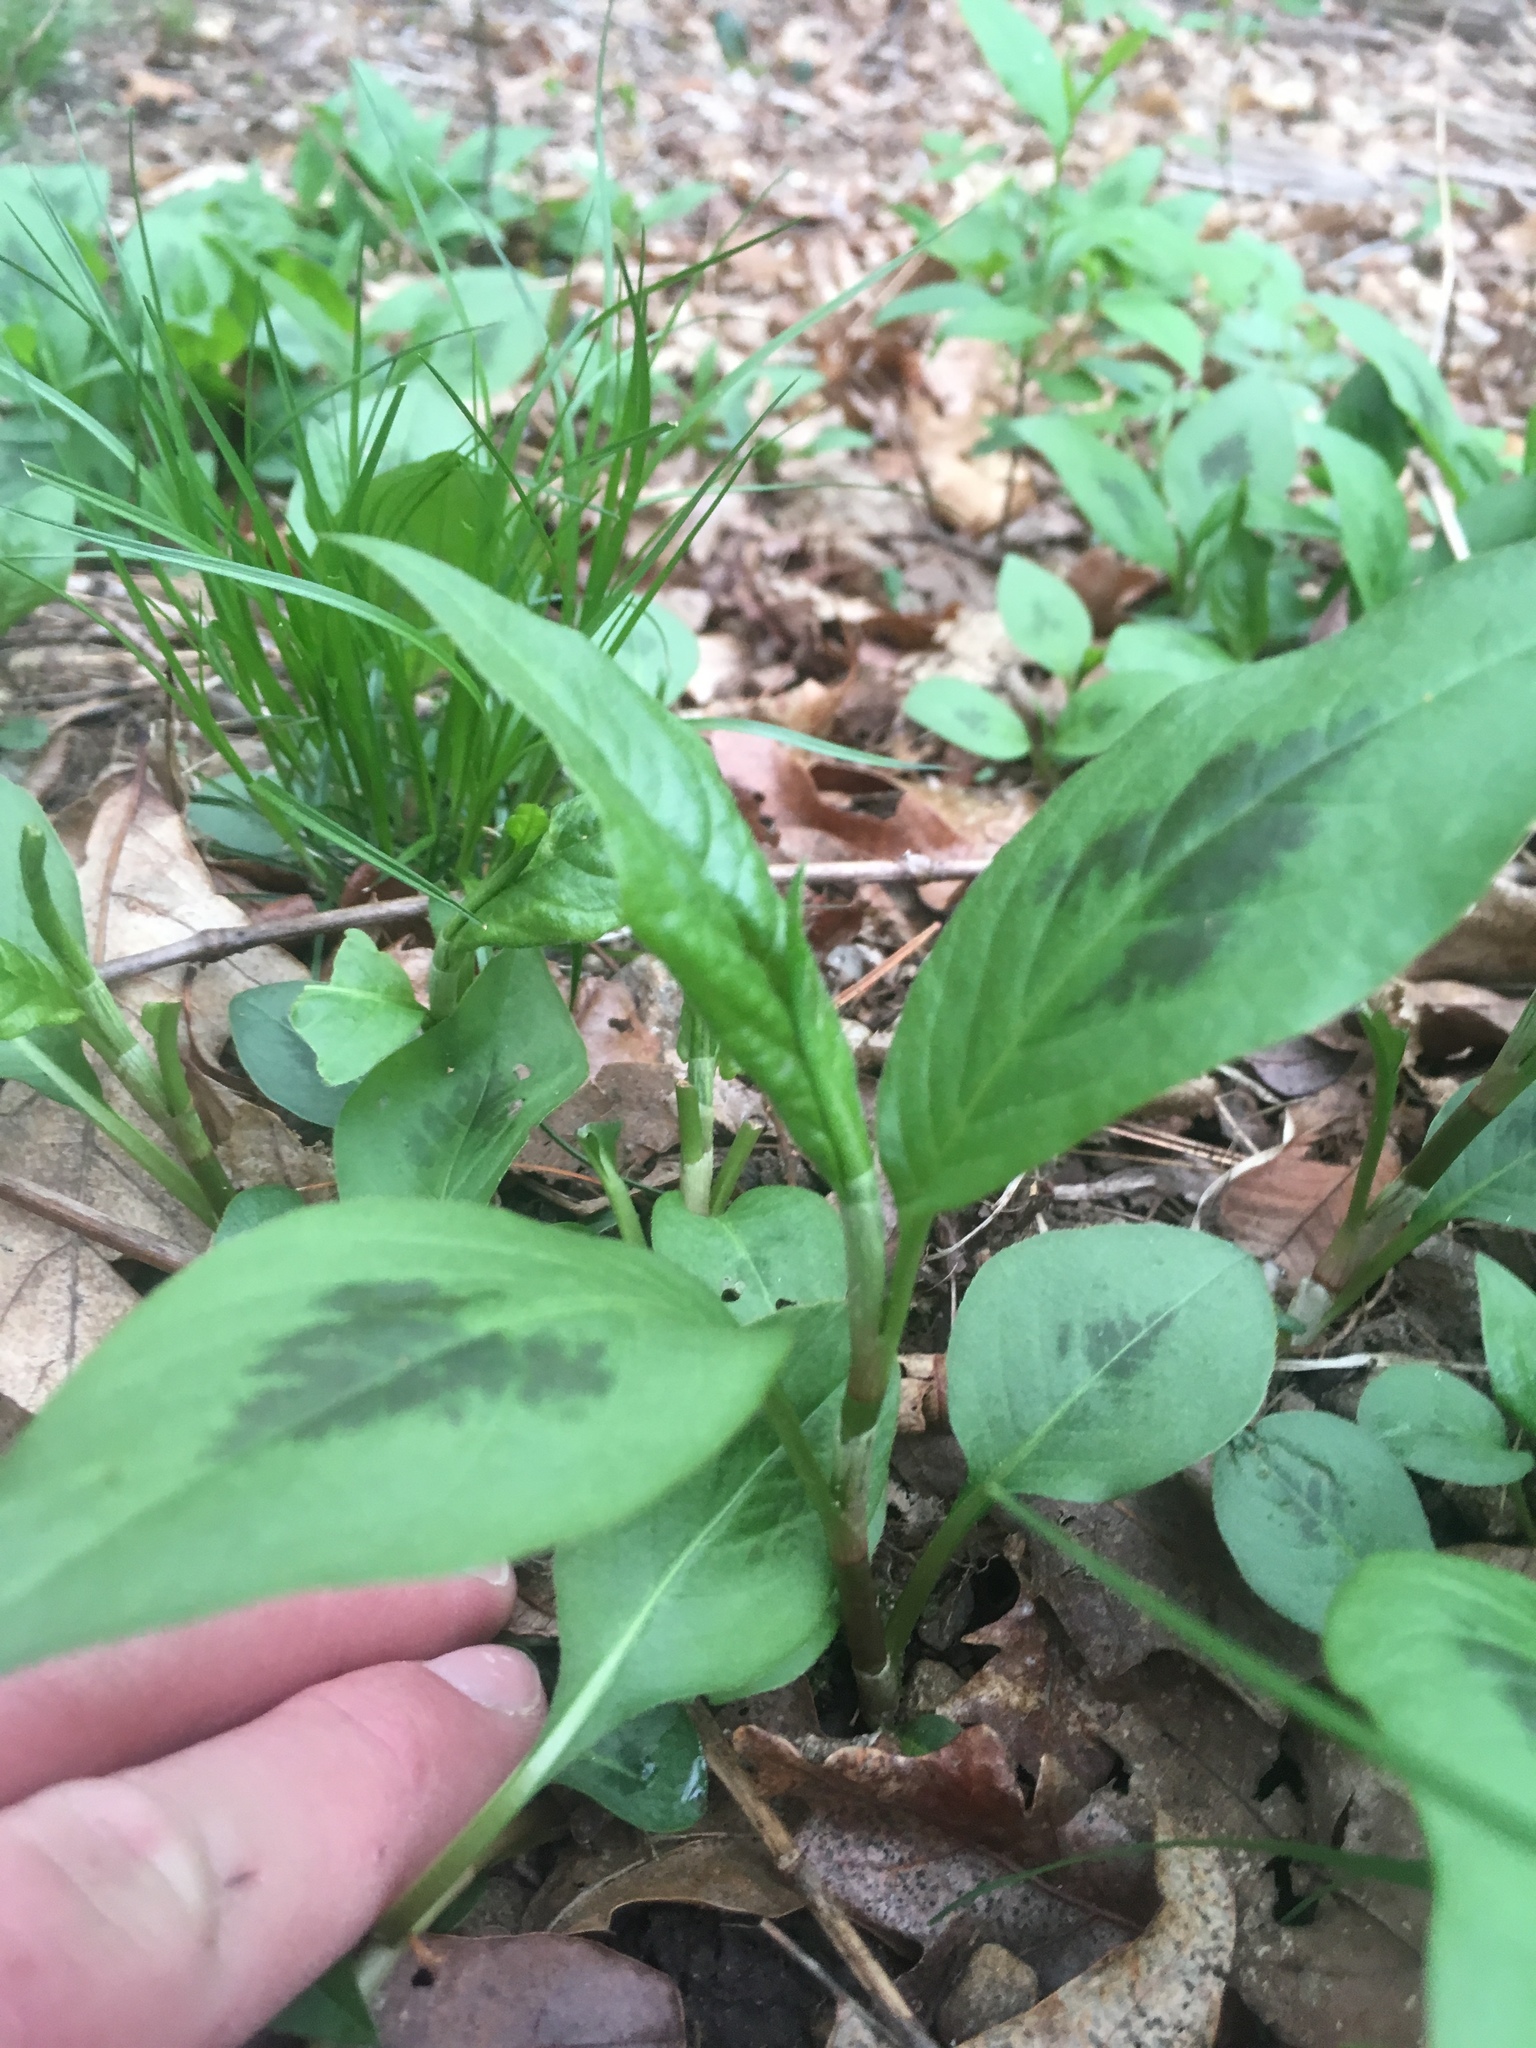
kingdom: Plantae
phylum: Tracheophyta
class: Magnoliopsida
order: Caryophyllales
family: Polygonaceae
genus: Persicaria
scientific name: Persicaria virginiana
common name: Jumpseed
